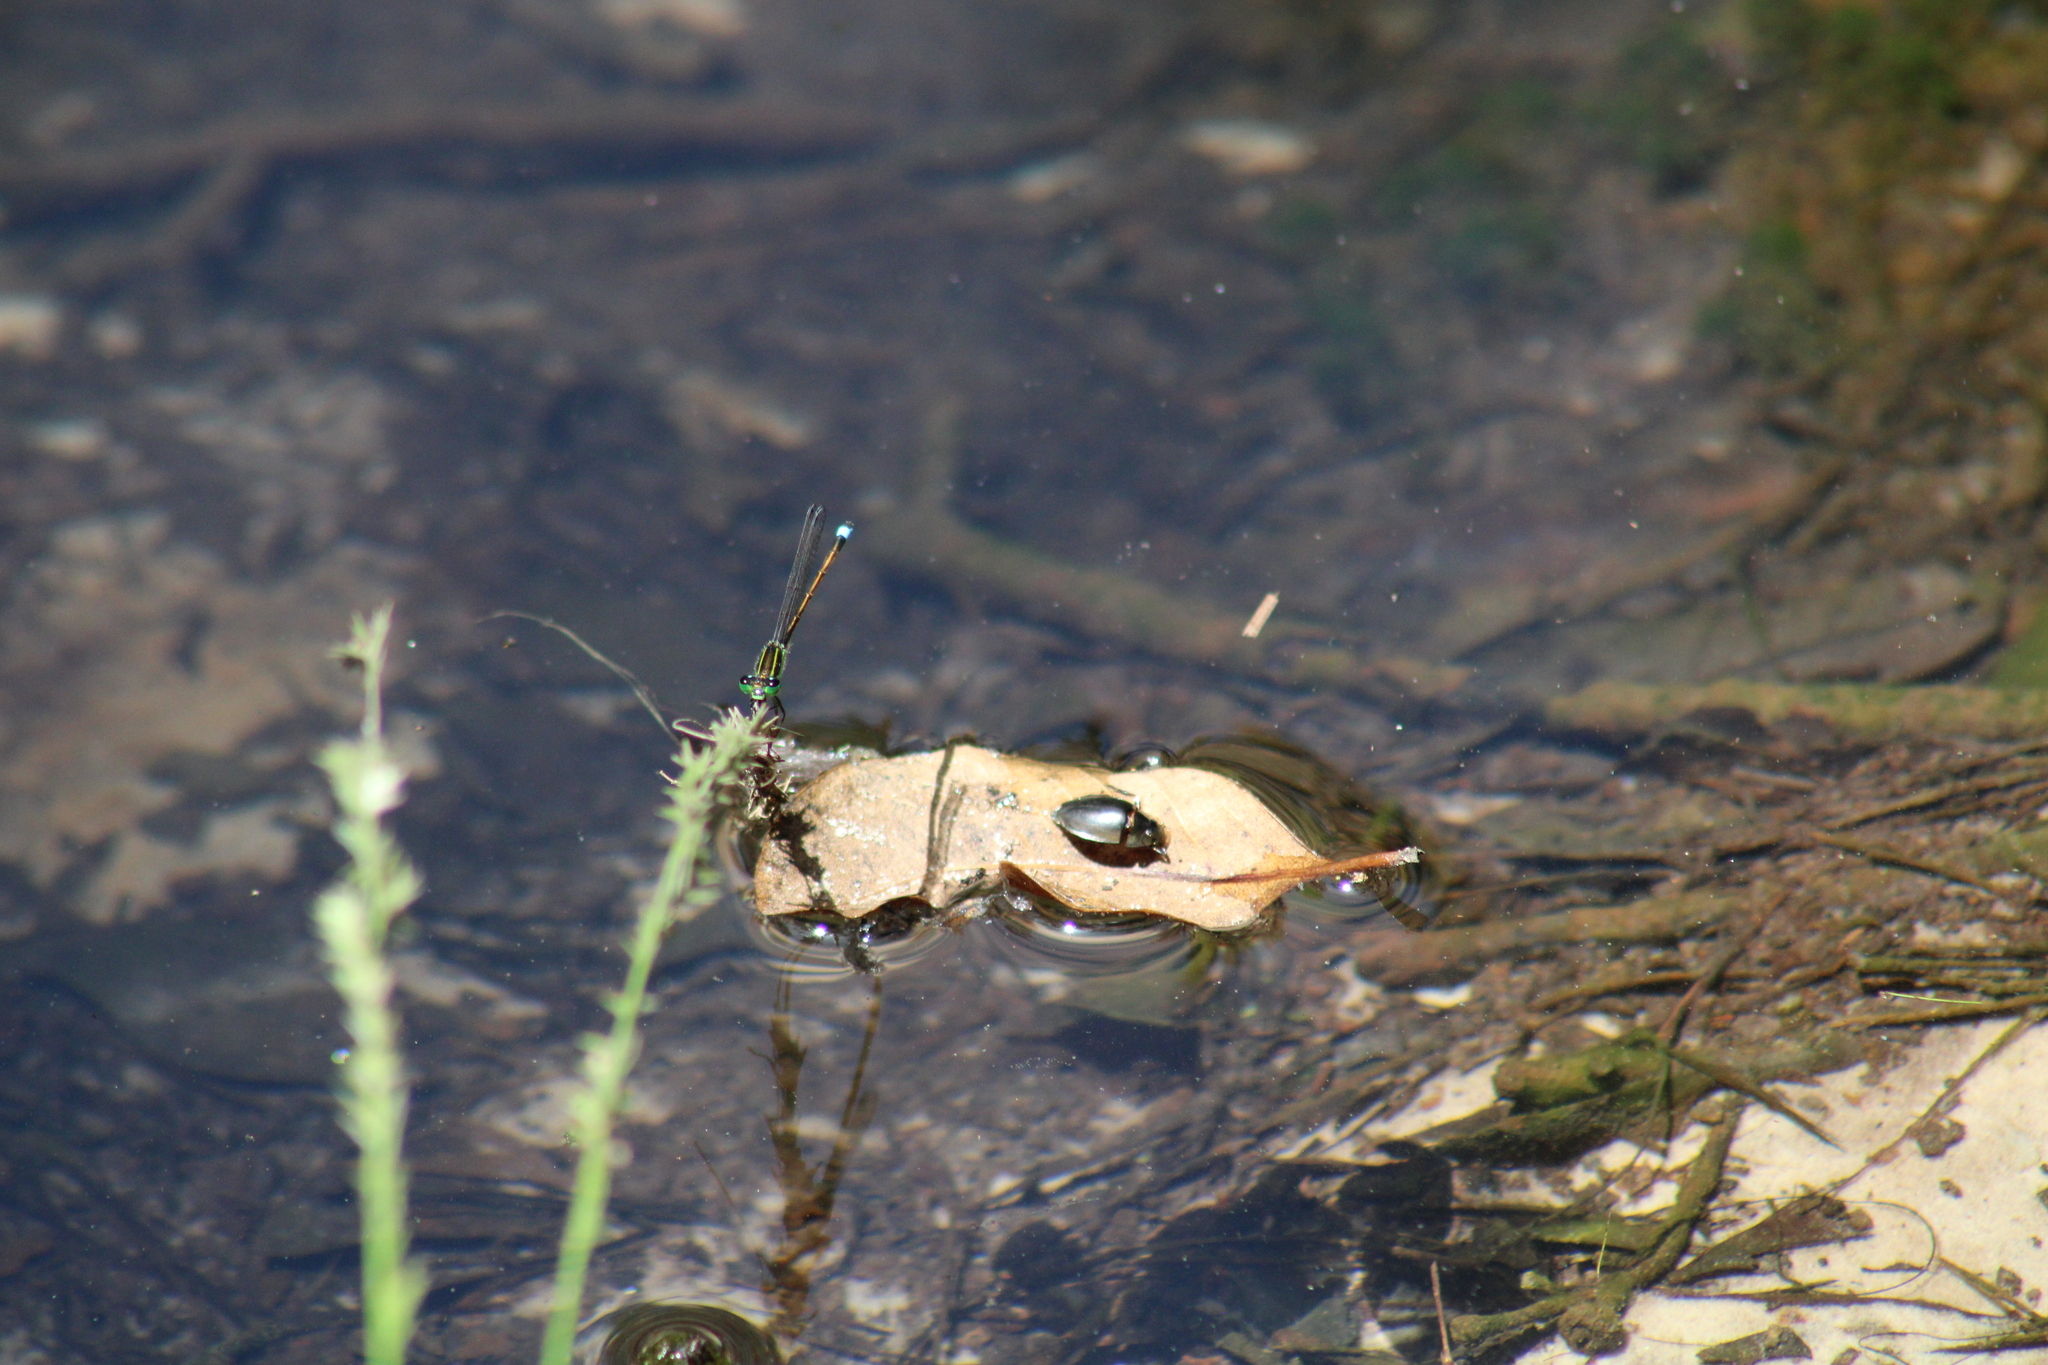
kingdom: Animalia
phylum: Arthropoda
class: Insecta
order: Odonata
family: Coenagrionidae
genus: Ischnura
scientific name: Ischnura ramburii
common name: Rambur's forktail
